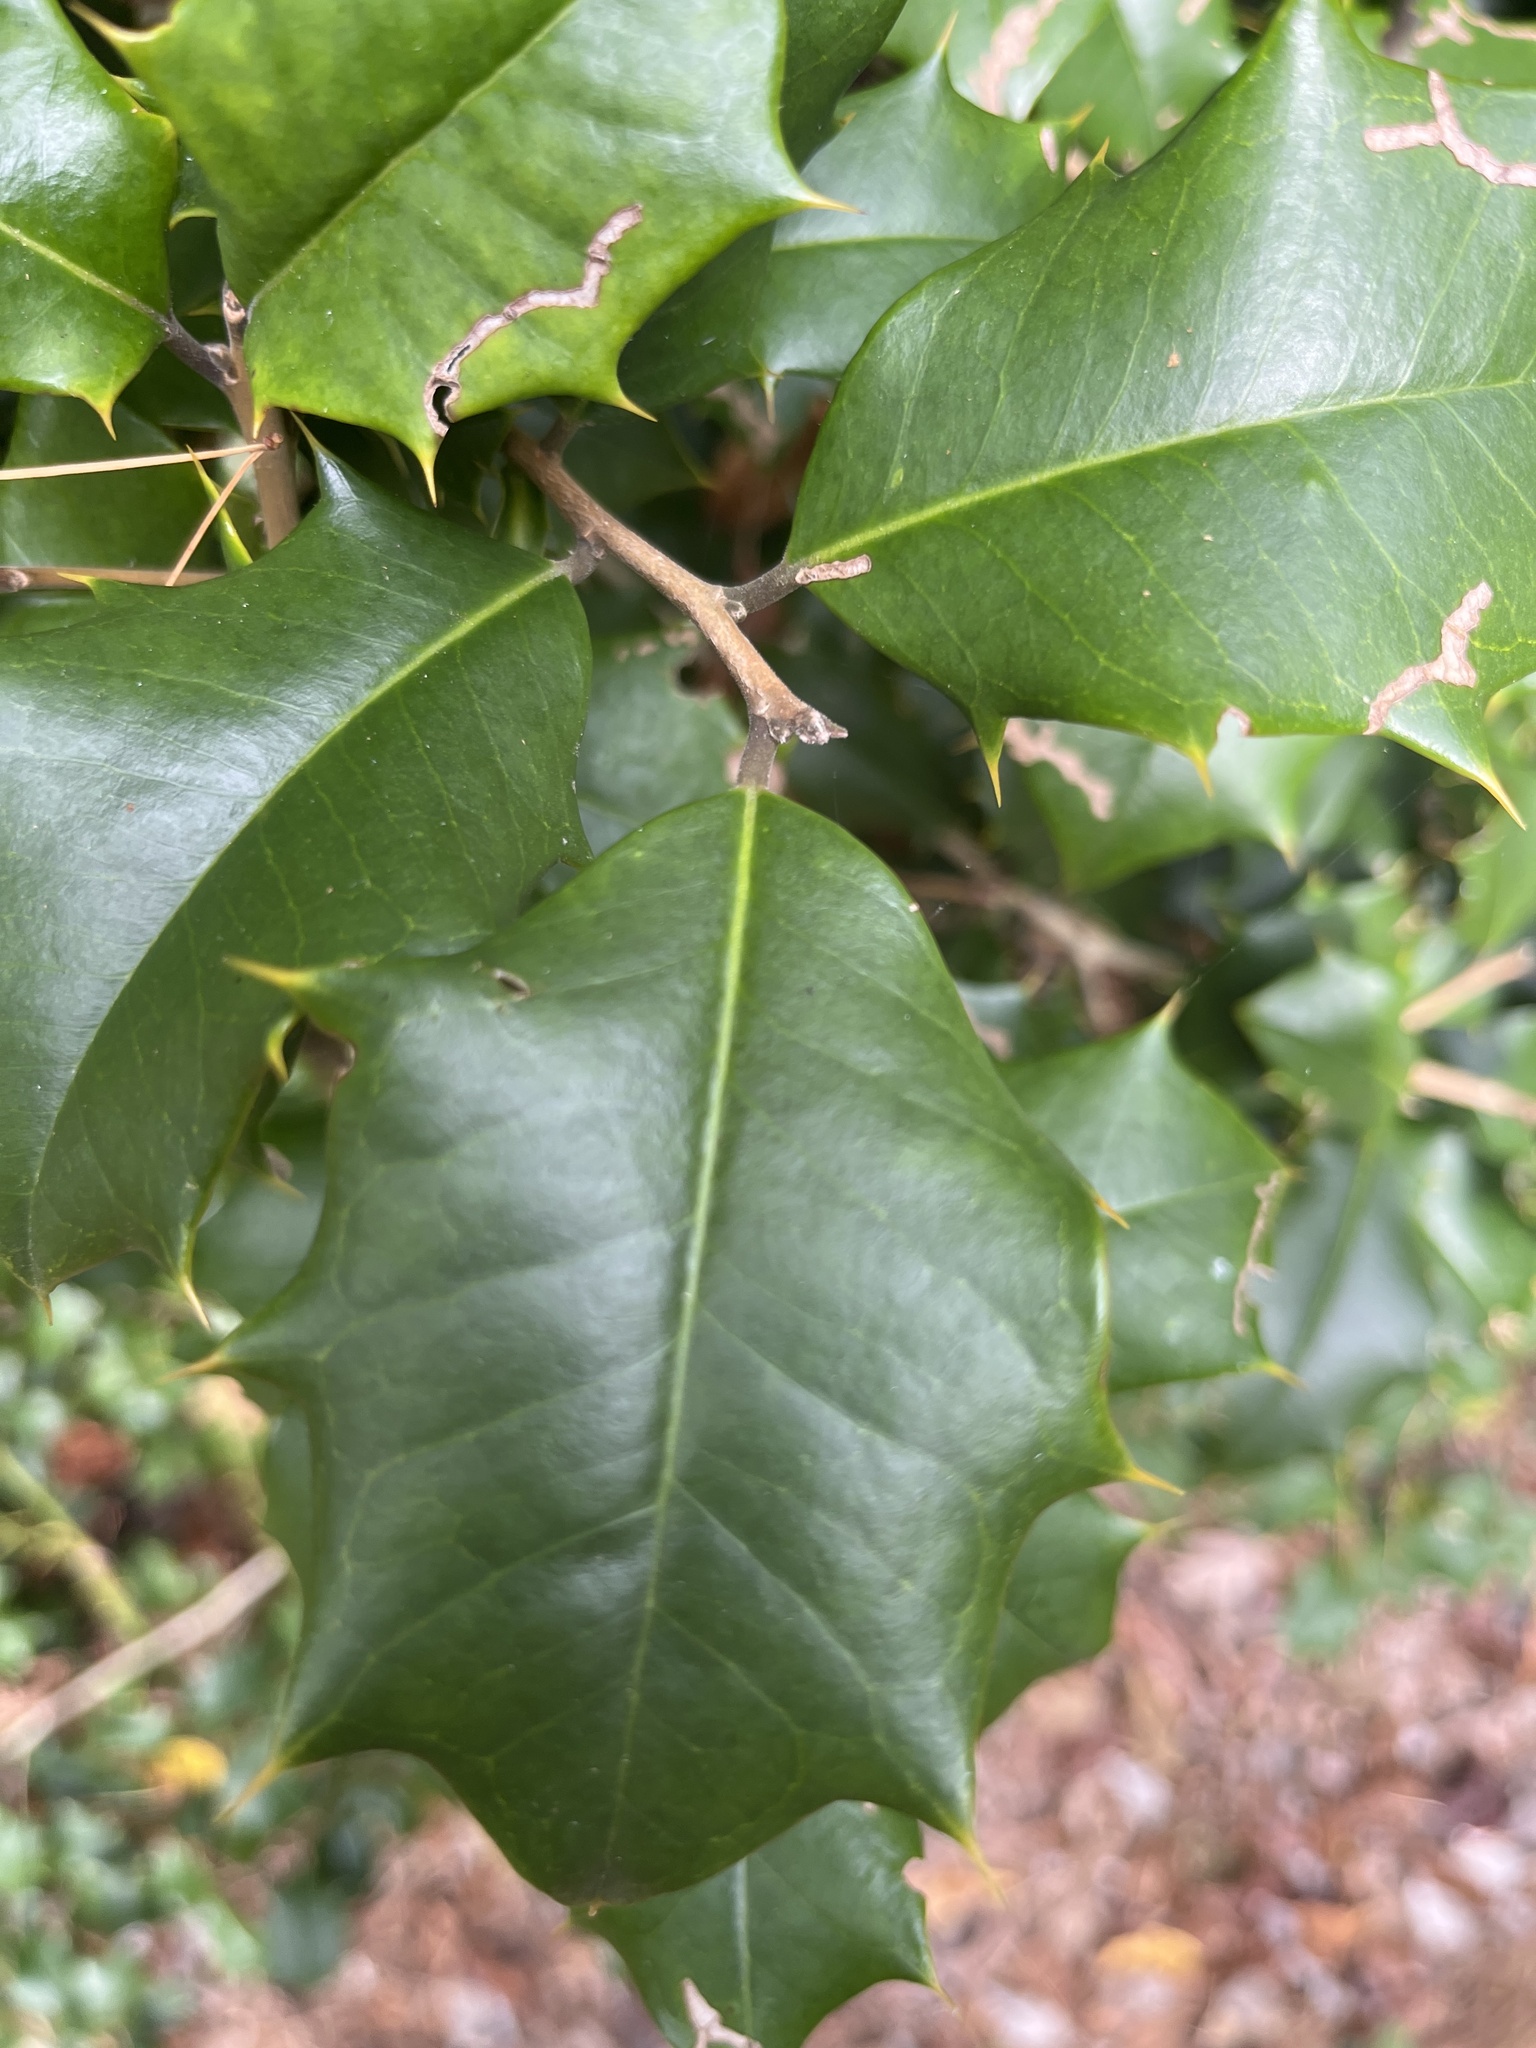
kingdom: Plantae
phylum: Tracheophyta
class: Magnoliopsida
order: Aquifoliales
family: Aquifoliaceae
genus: Ilex
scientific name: Ilex opaca
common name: American holly
